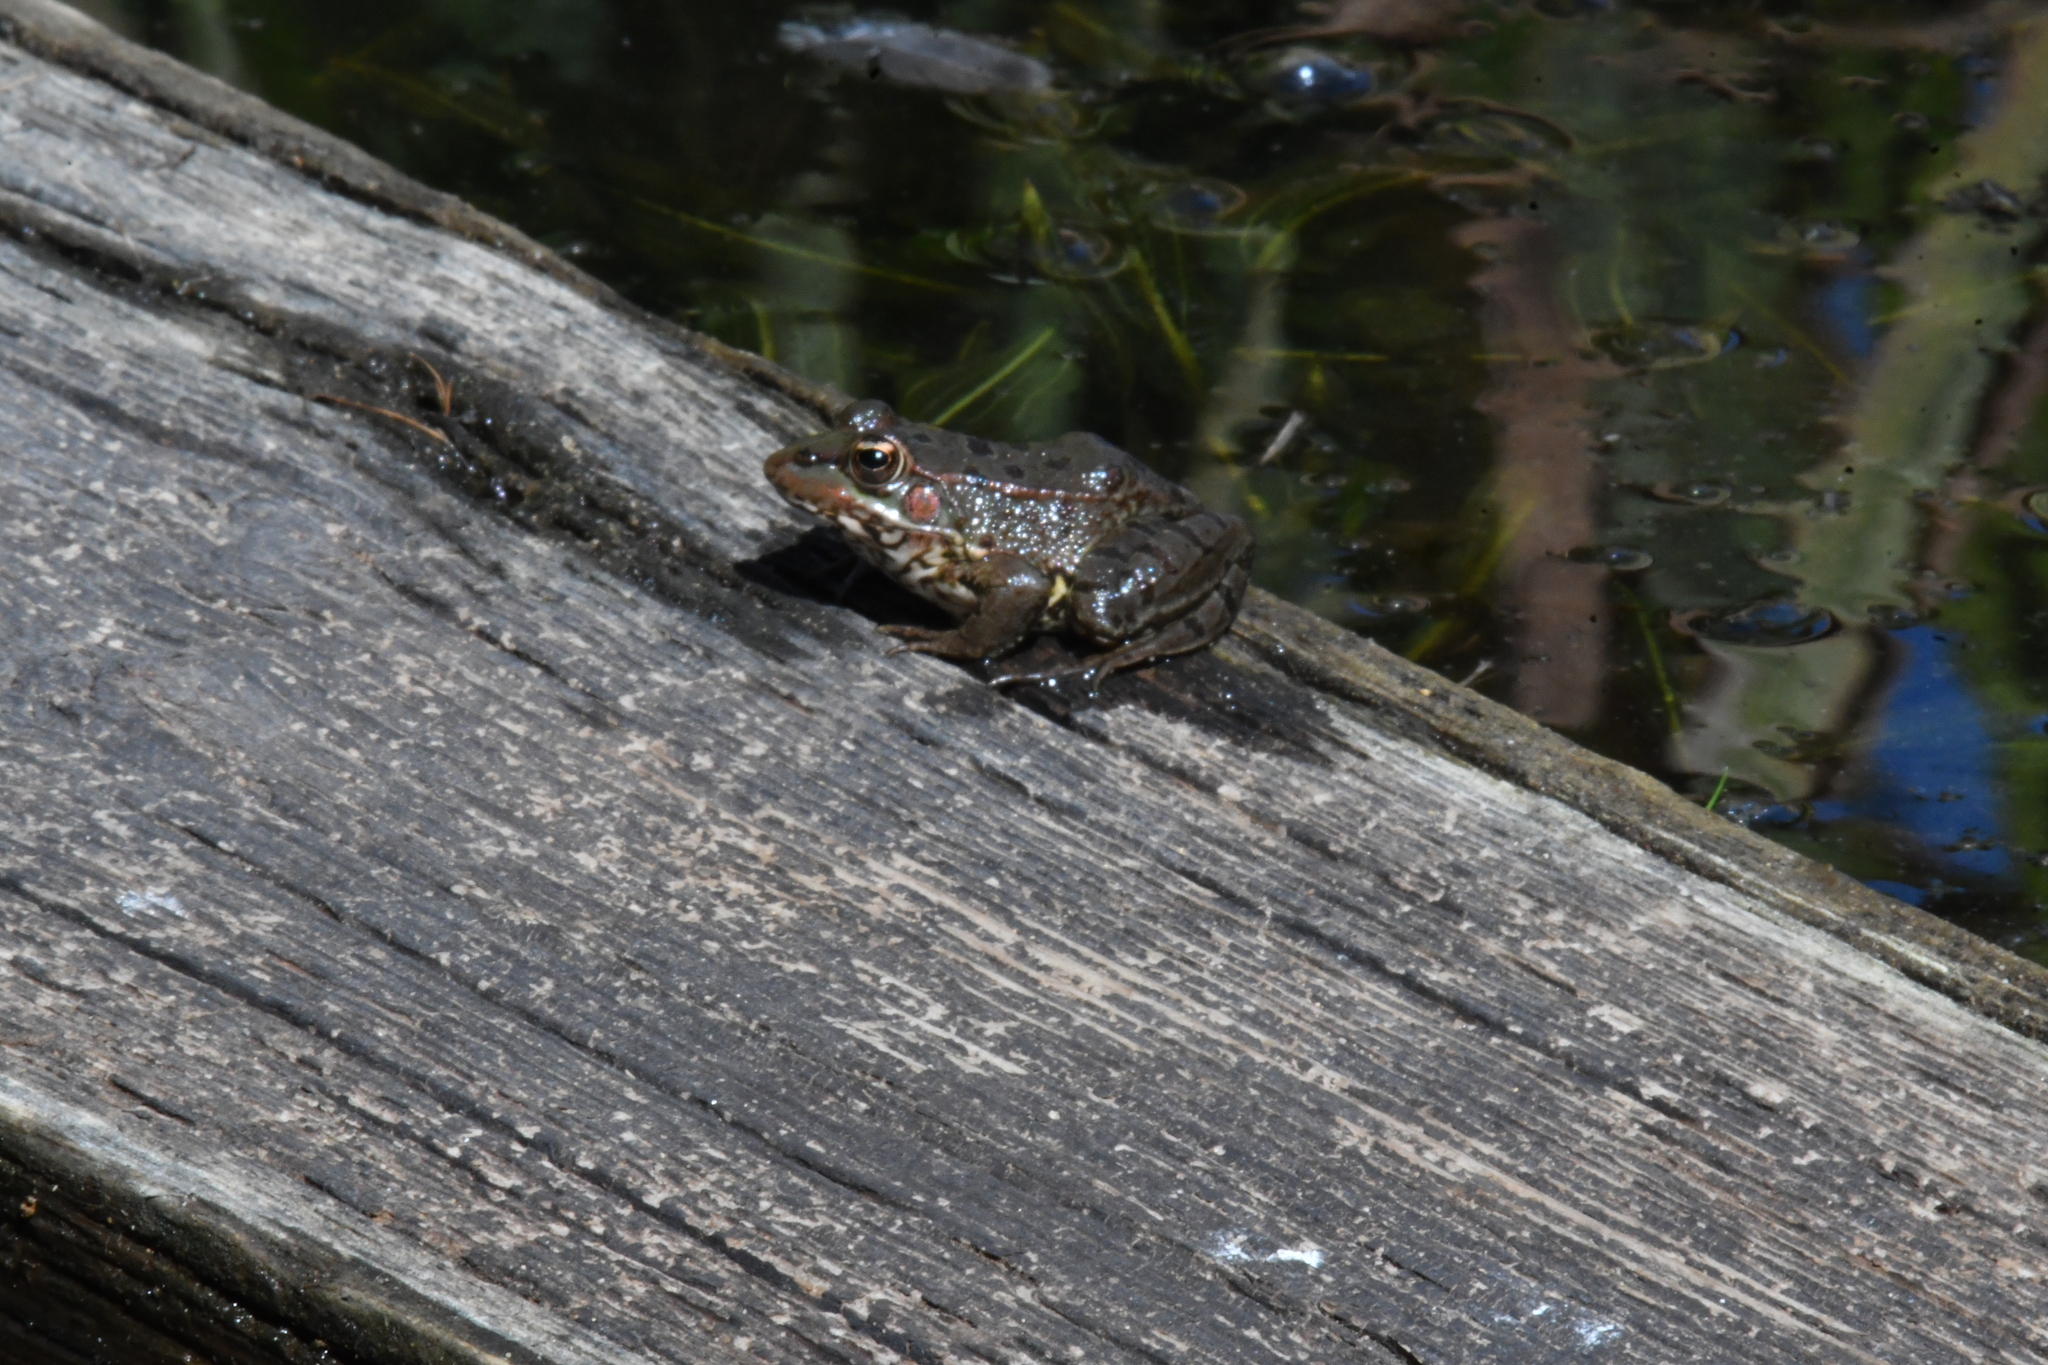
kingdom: Animalia
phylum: Chordata
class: Amphibia
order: Anura
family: Ranidae
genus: Pelophylax
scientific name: Pelophylax perezi
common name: Perez's frog
